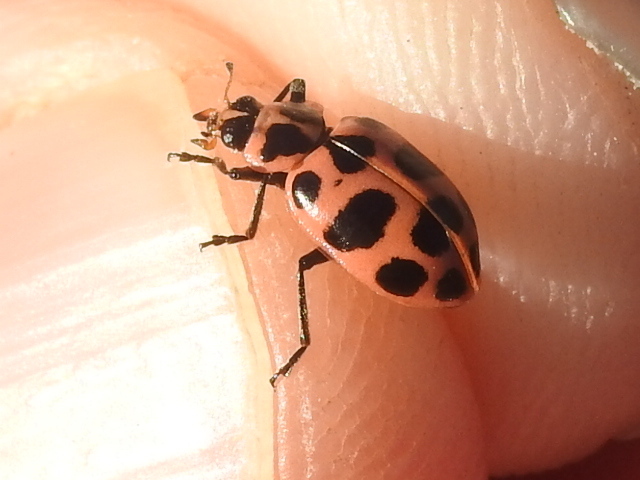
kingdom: Animalia
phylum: Arthropoda
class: Insecta
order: Coleoptera
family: Coccinellidae
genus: Coleomegilla
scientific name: Coleomegilla maculata
